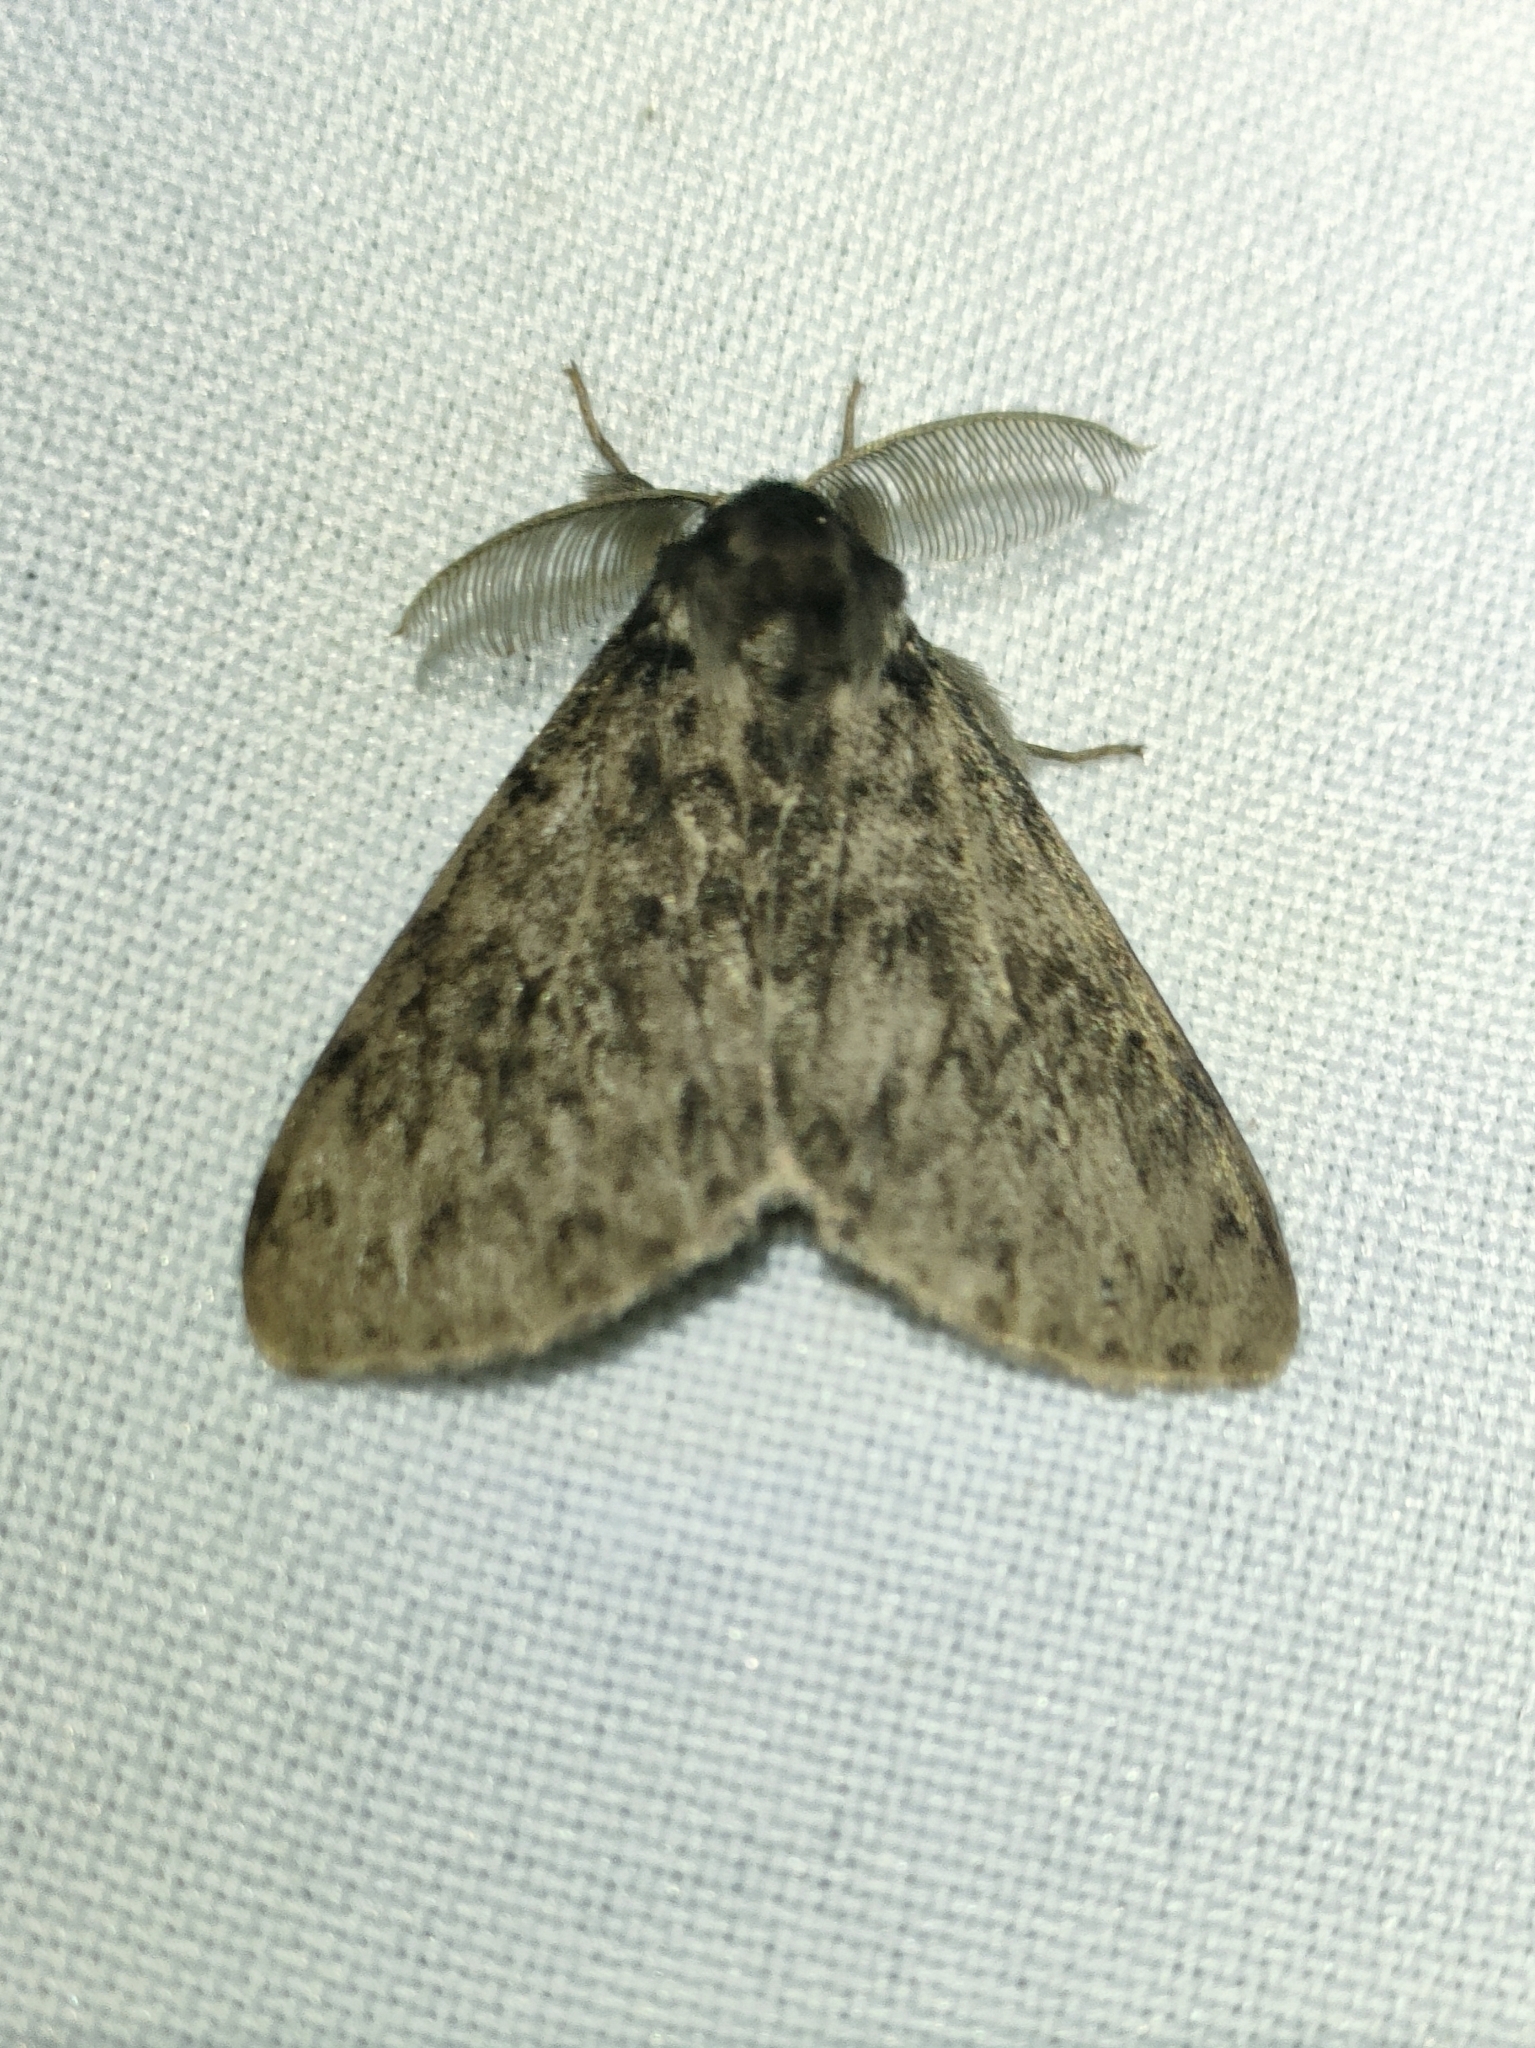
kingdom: Animalia
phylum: Arthropoda
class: Insecta
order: Lepidoptera
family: Erebidae
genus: Lymantria
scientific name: Lymantria monacha
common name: Black arches
